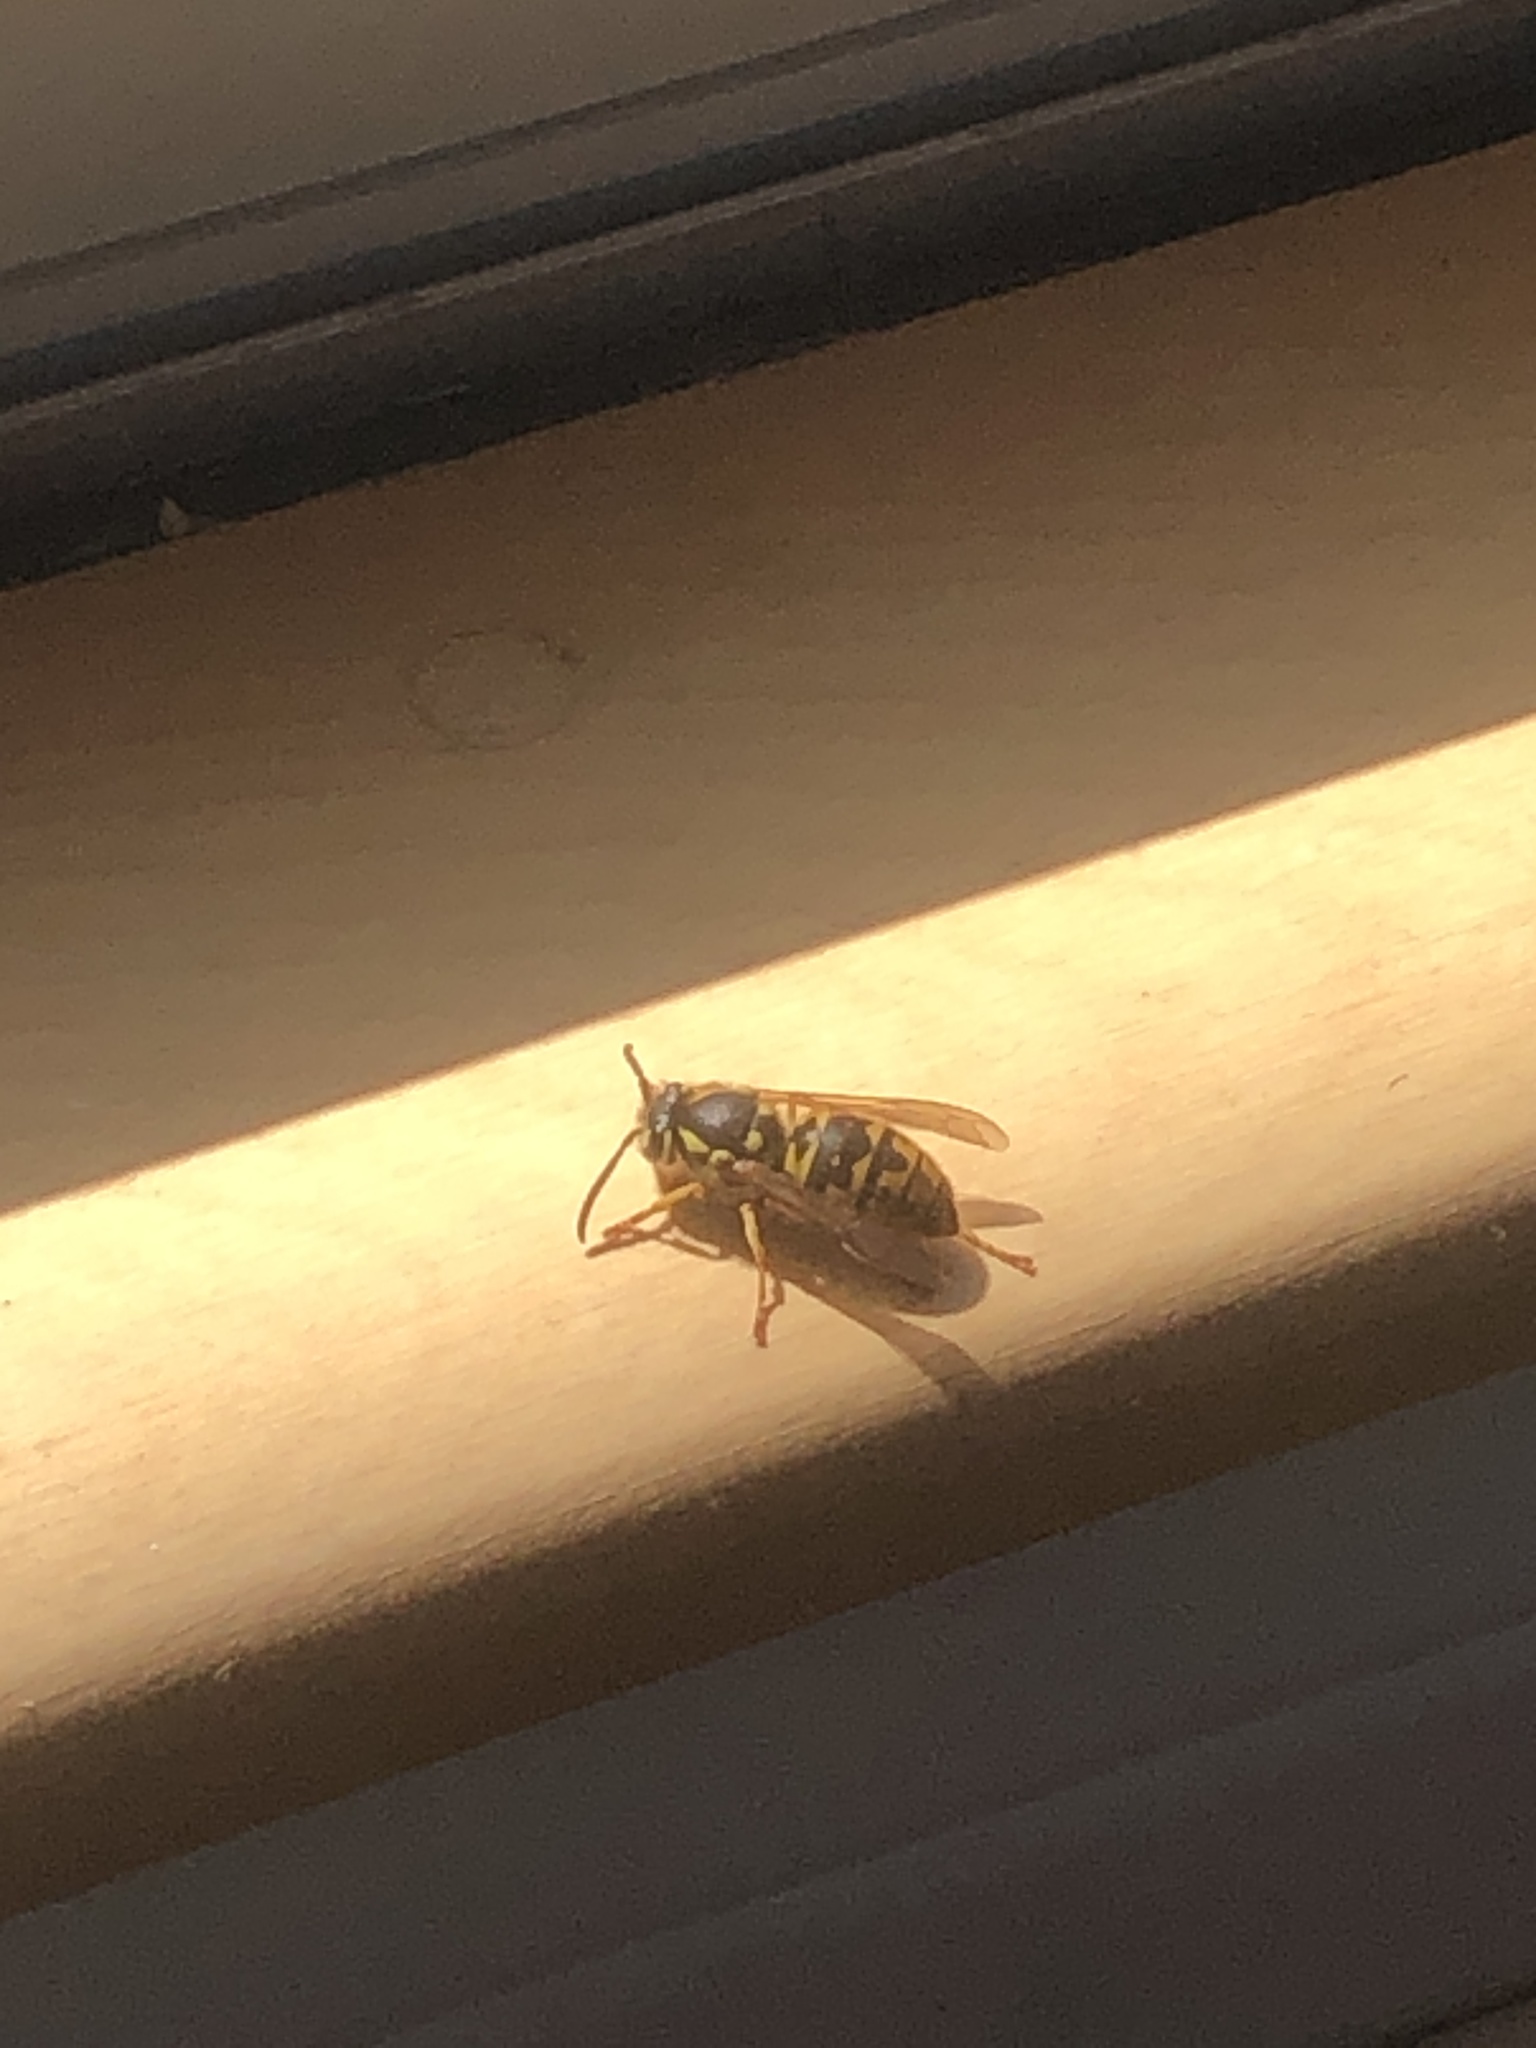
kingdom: Animalia
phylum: Arthropoda
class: Insecta
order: Hymenoptera
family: Vespidae
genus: Vespula
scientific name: Vespula germanica
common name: German wasp
